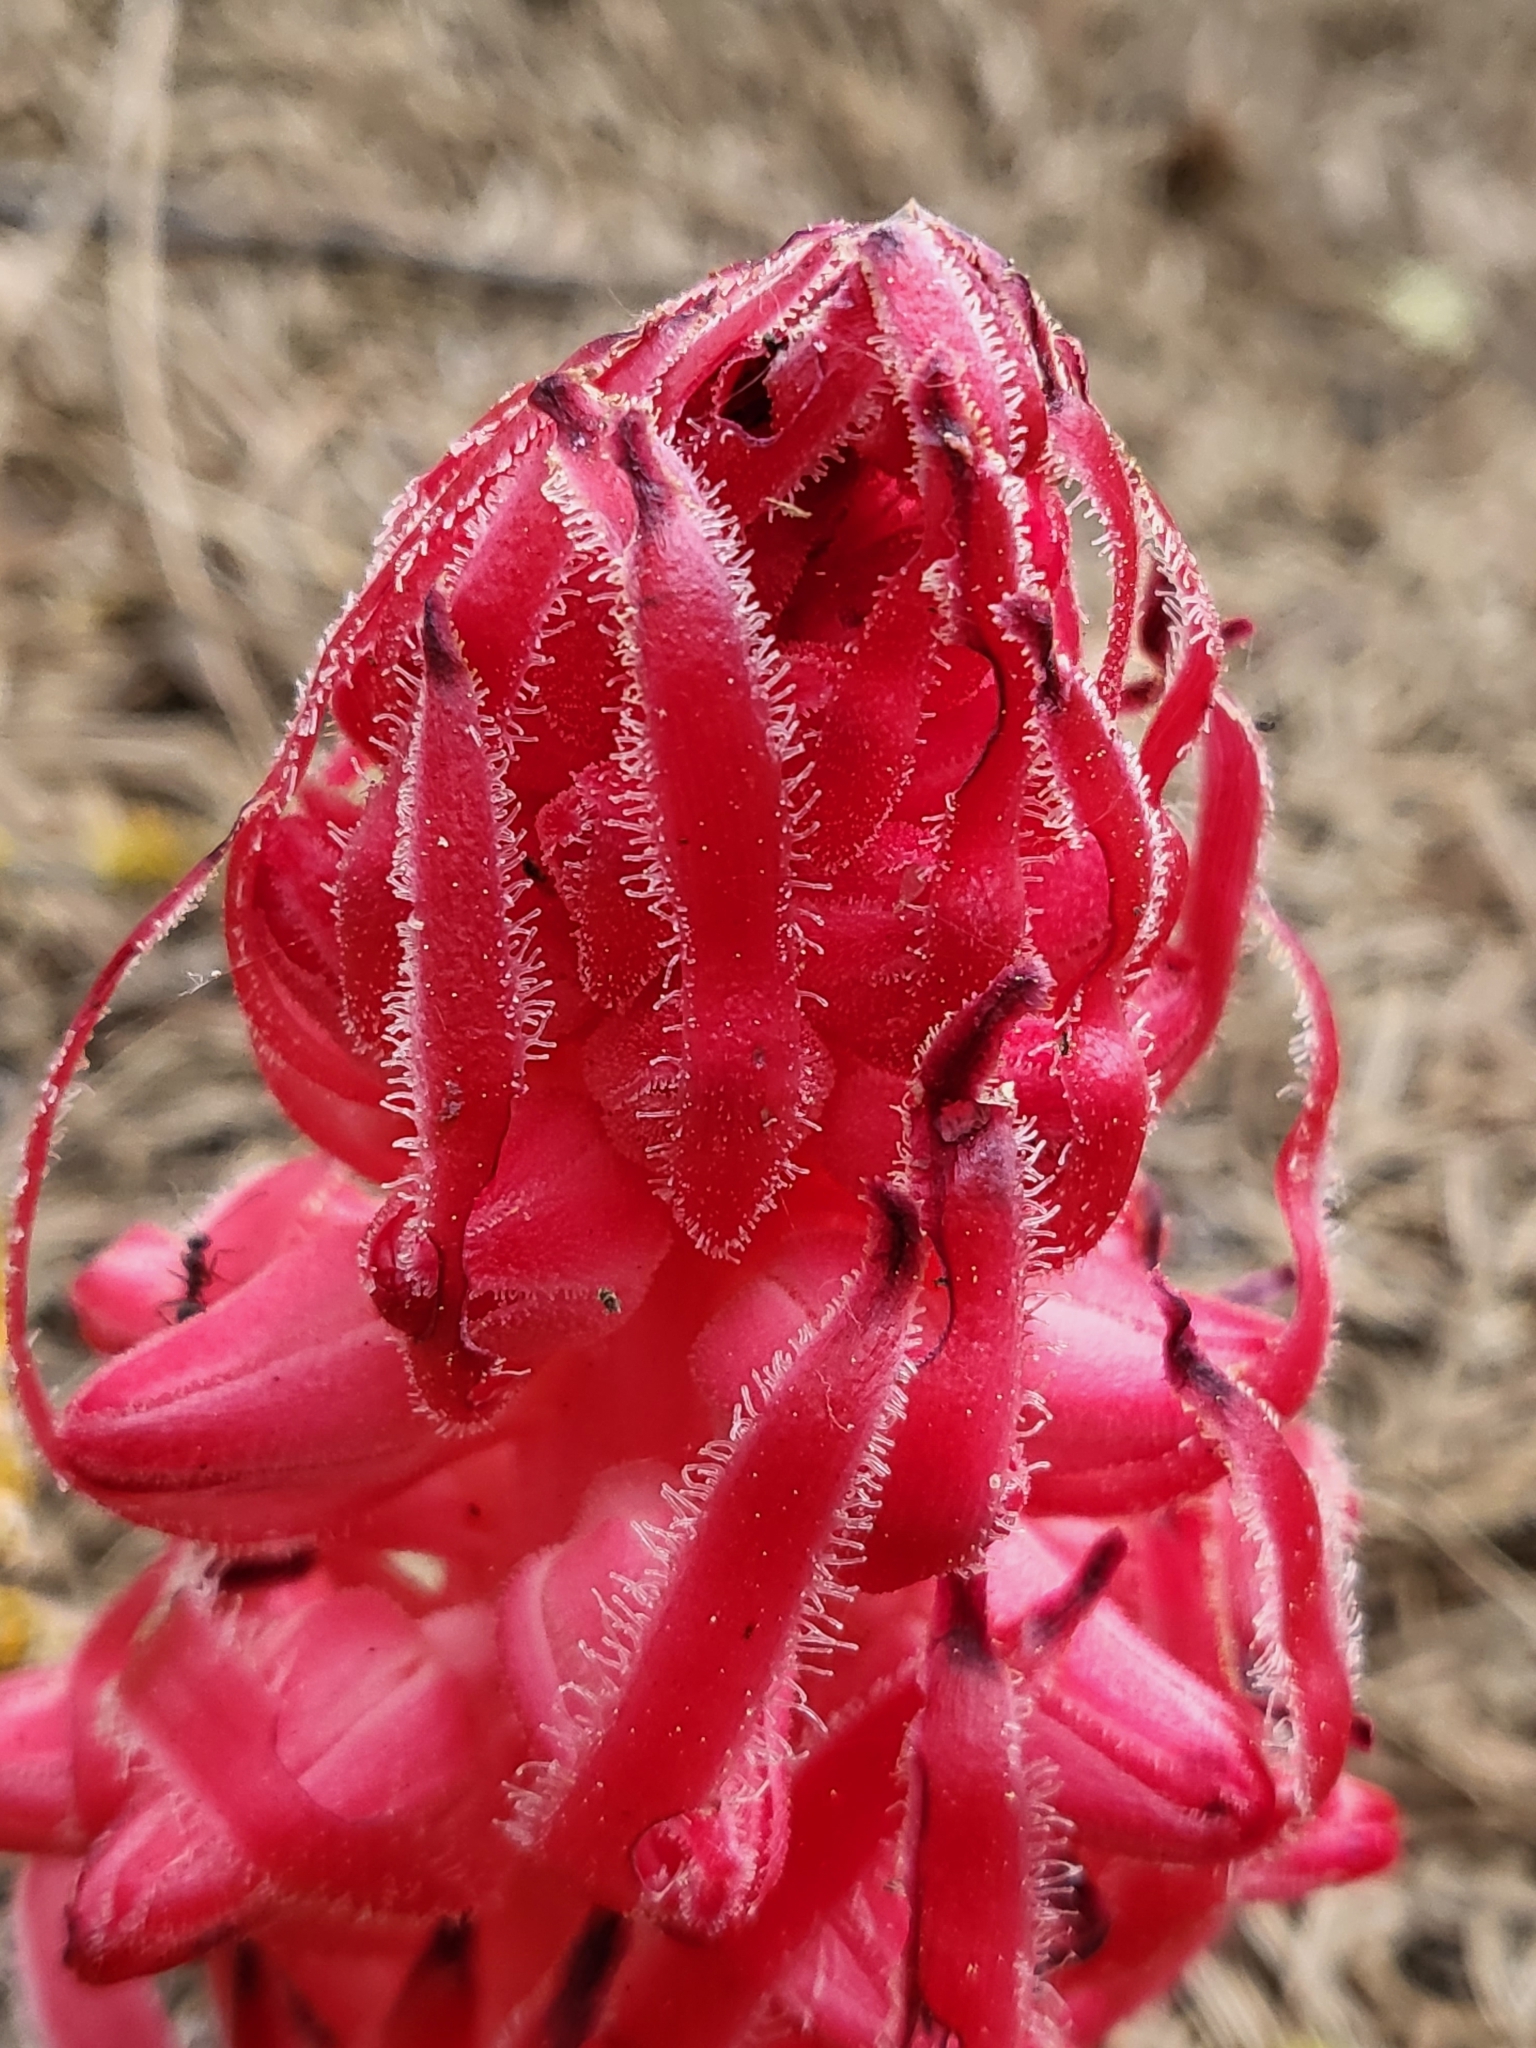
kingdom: Plantae
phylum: Tracheophyta
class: Magnoliopsida
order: Ericales
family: Ericaceae
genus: Sarcodes
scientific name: Sarcodes sanguinea
